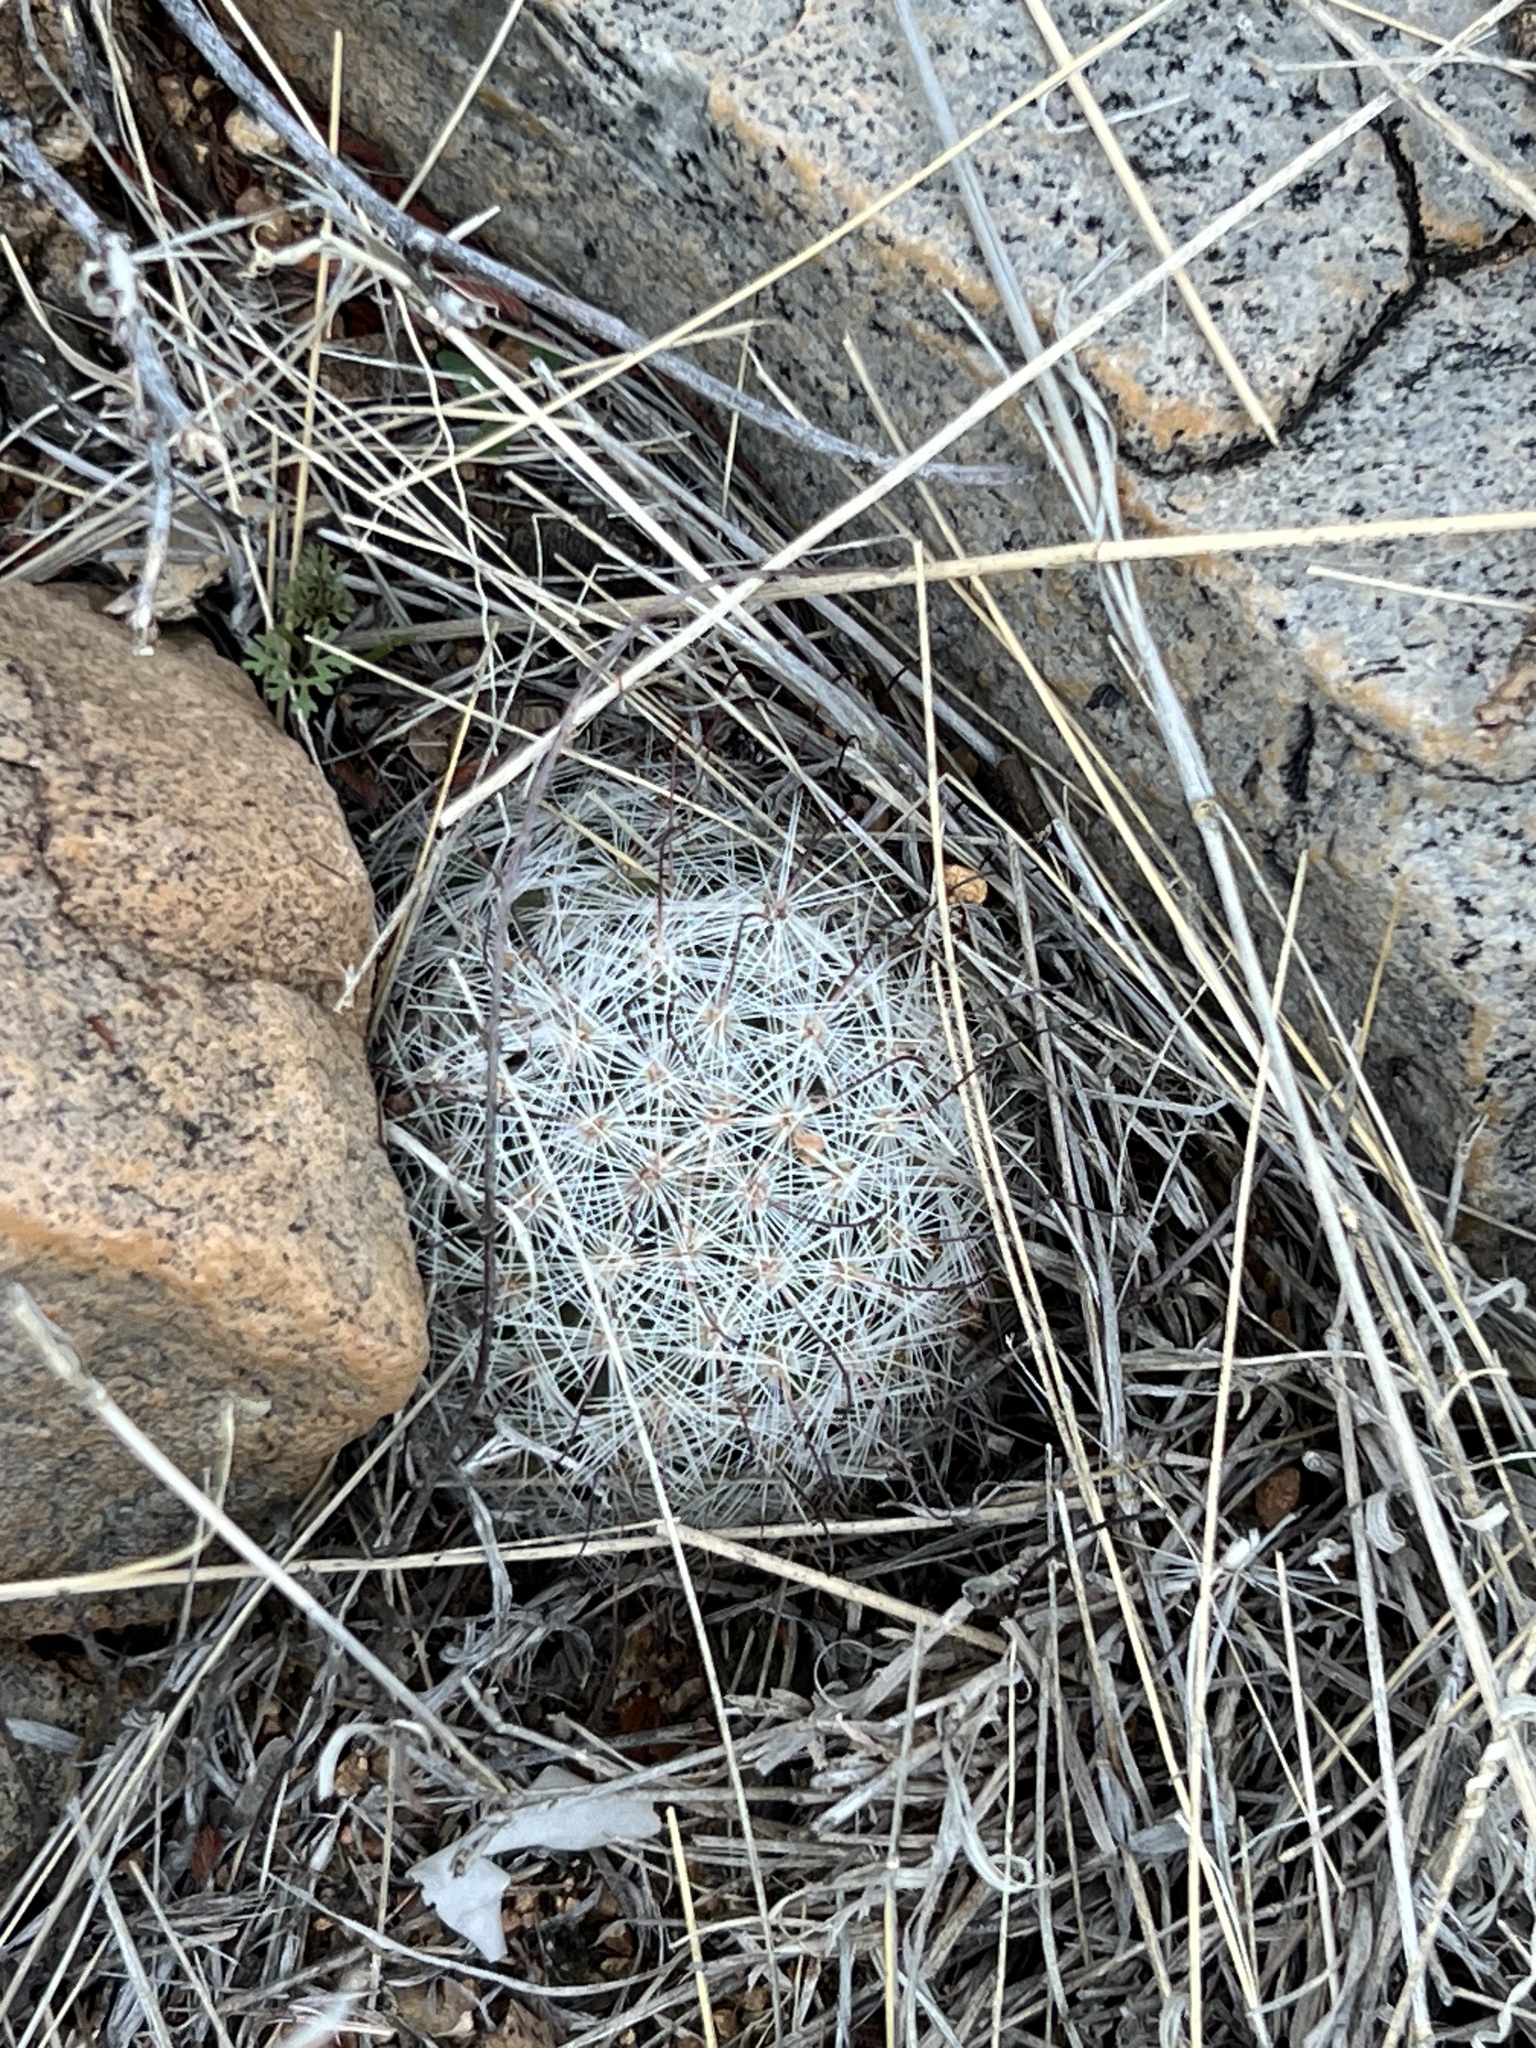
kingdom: Plantae
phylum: Tracheophyta
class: Magnoliopsida
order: Caryophyllales
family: Cactaceae
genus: Cochemiea
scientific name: Cochemiea grahamii
